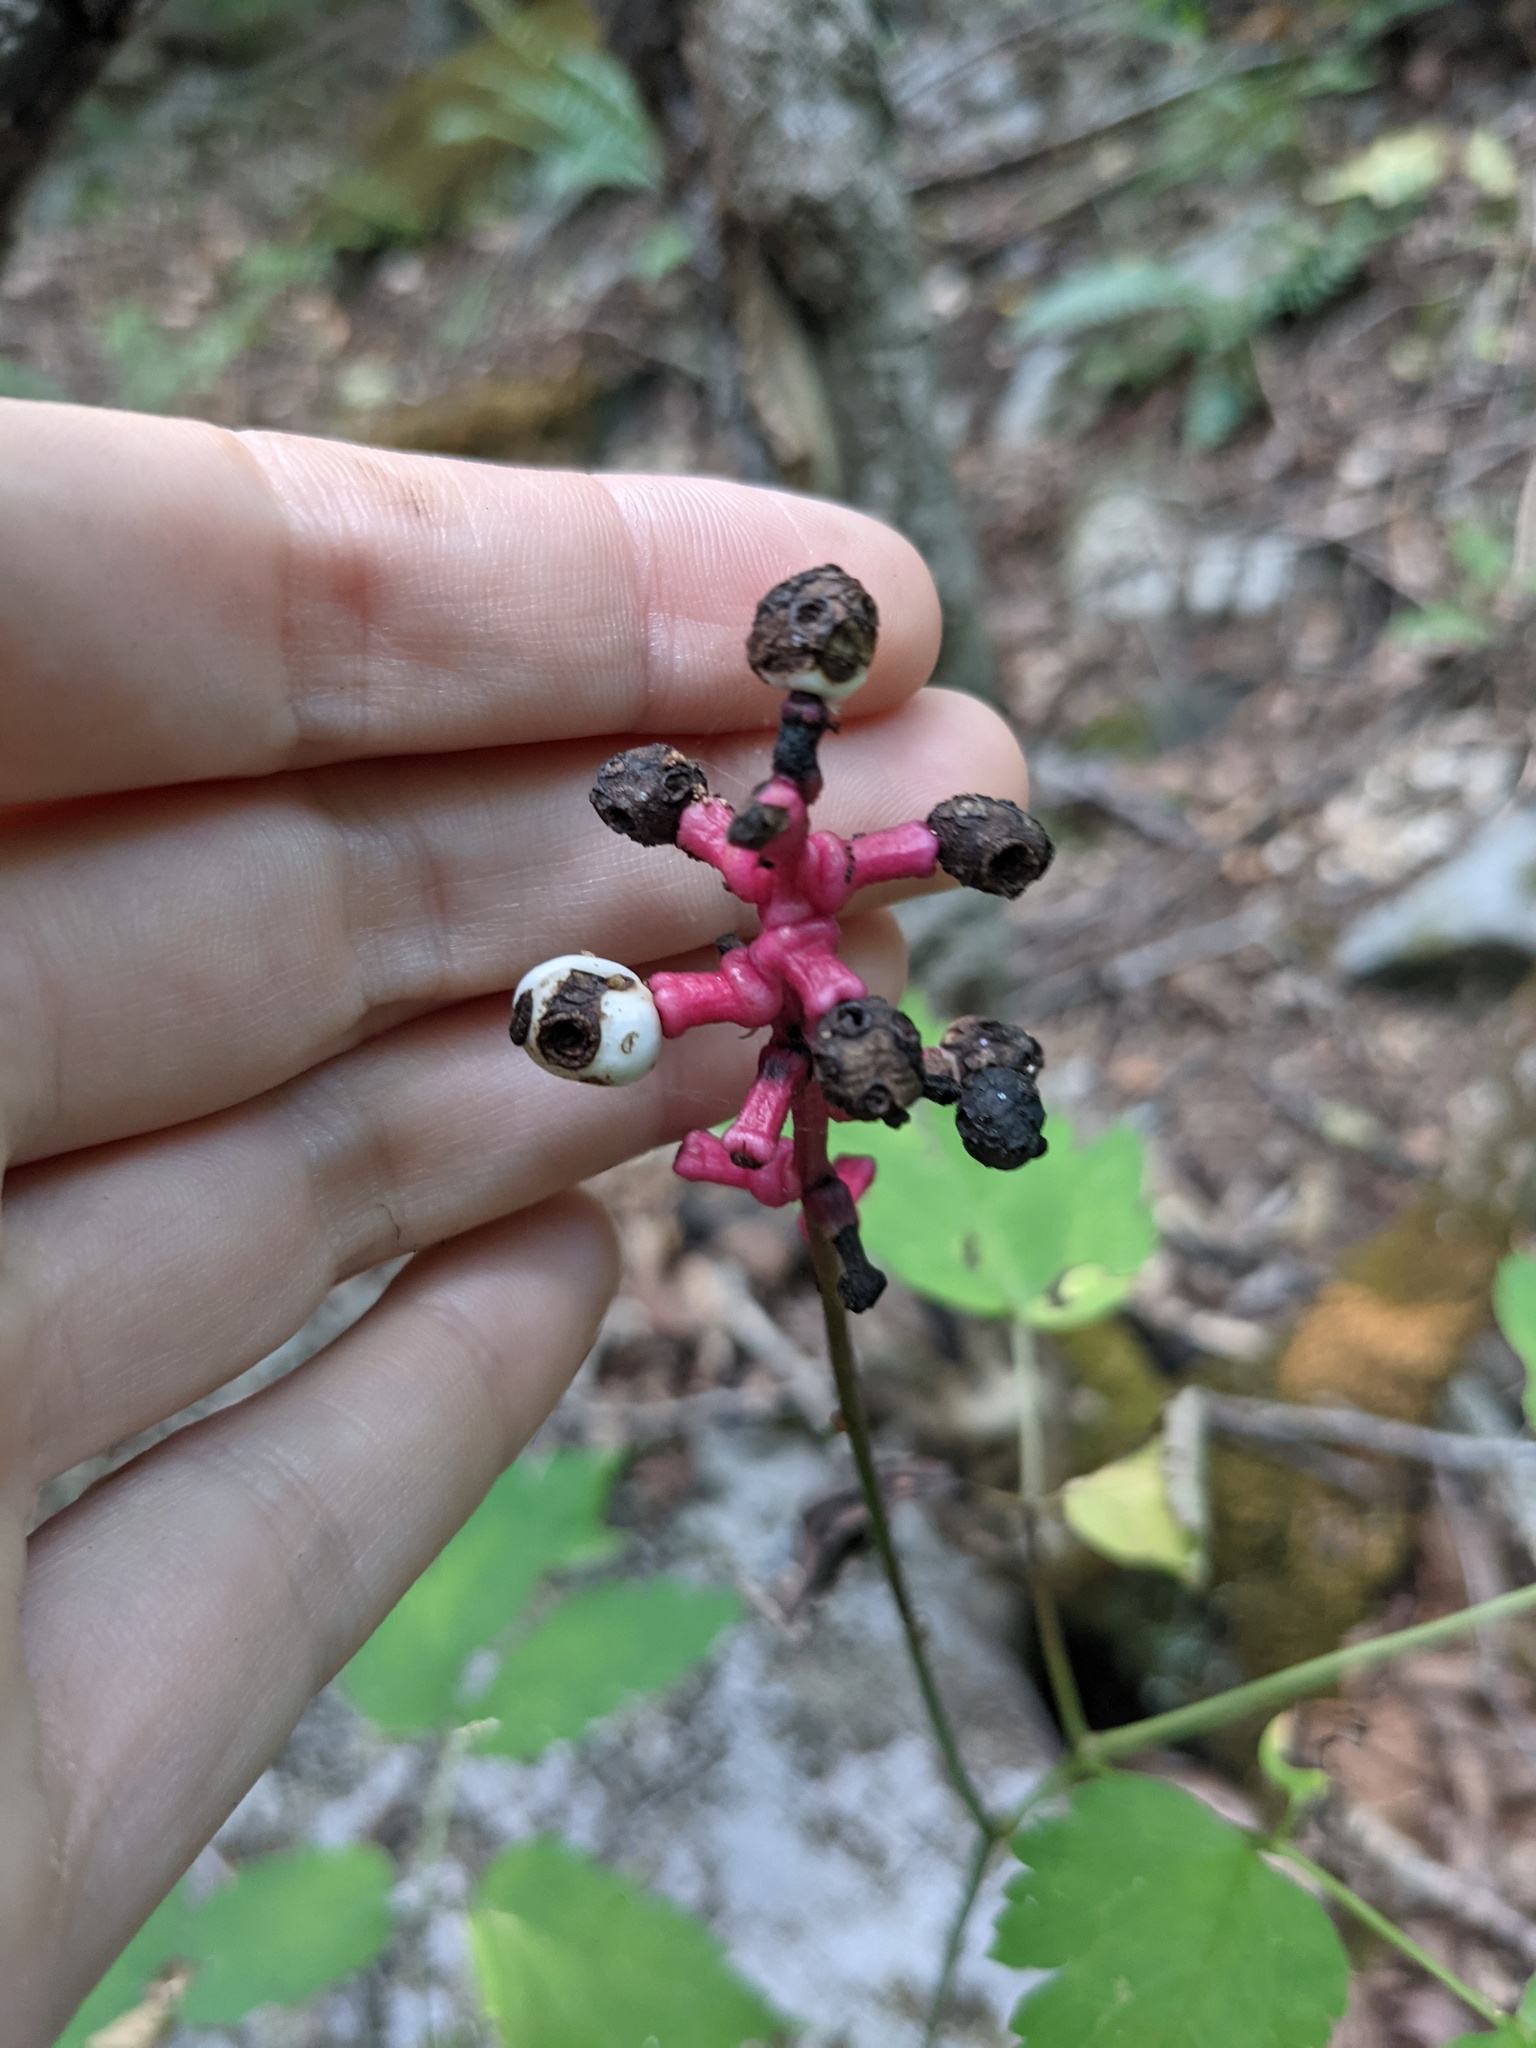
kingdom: Plantae
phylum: Tracheophyta
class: Magnoliopsida
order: Ranunculales
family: Ranunculaceae
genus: Actaea
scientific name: Actaea pachypoda
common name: Doll's-eyes
